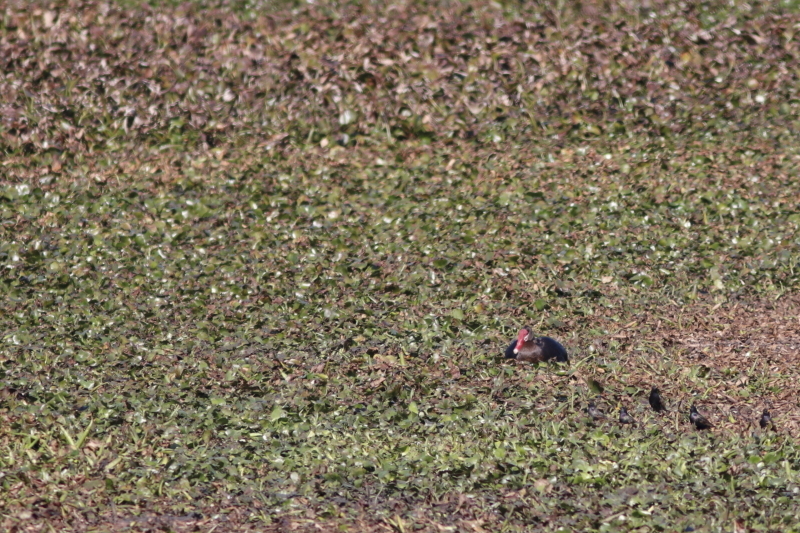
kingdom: Plantae
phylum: Tracheophyta
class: Liliopsida
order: Commelinales
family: Pontederiaceae
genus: Pontederia
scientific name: Pontederia crassipes
